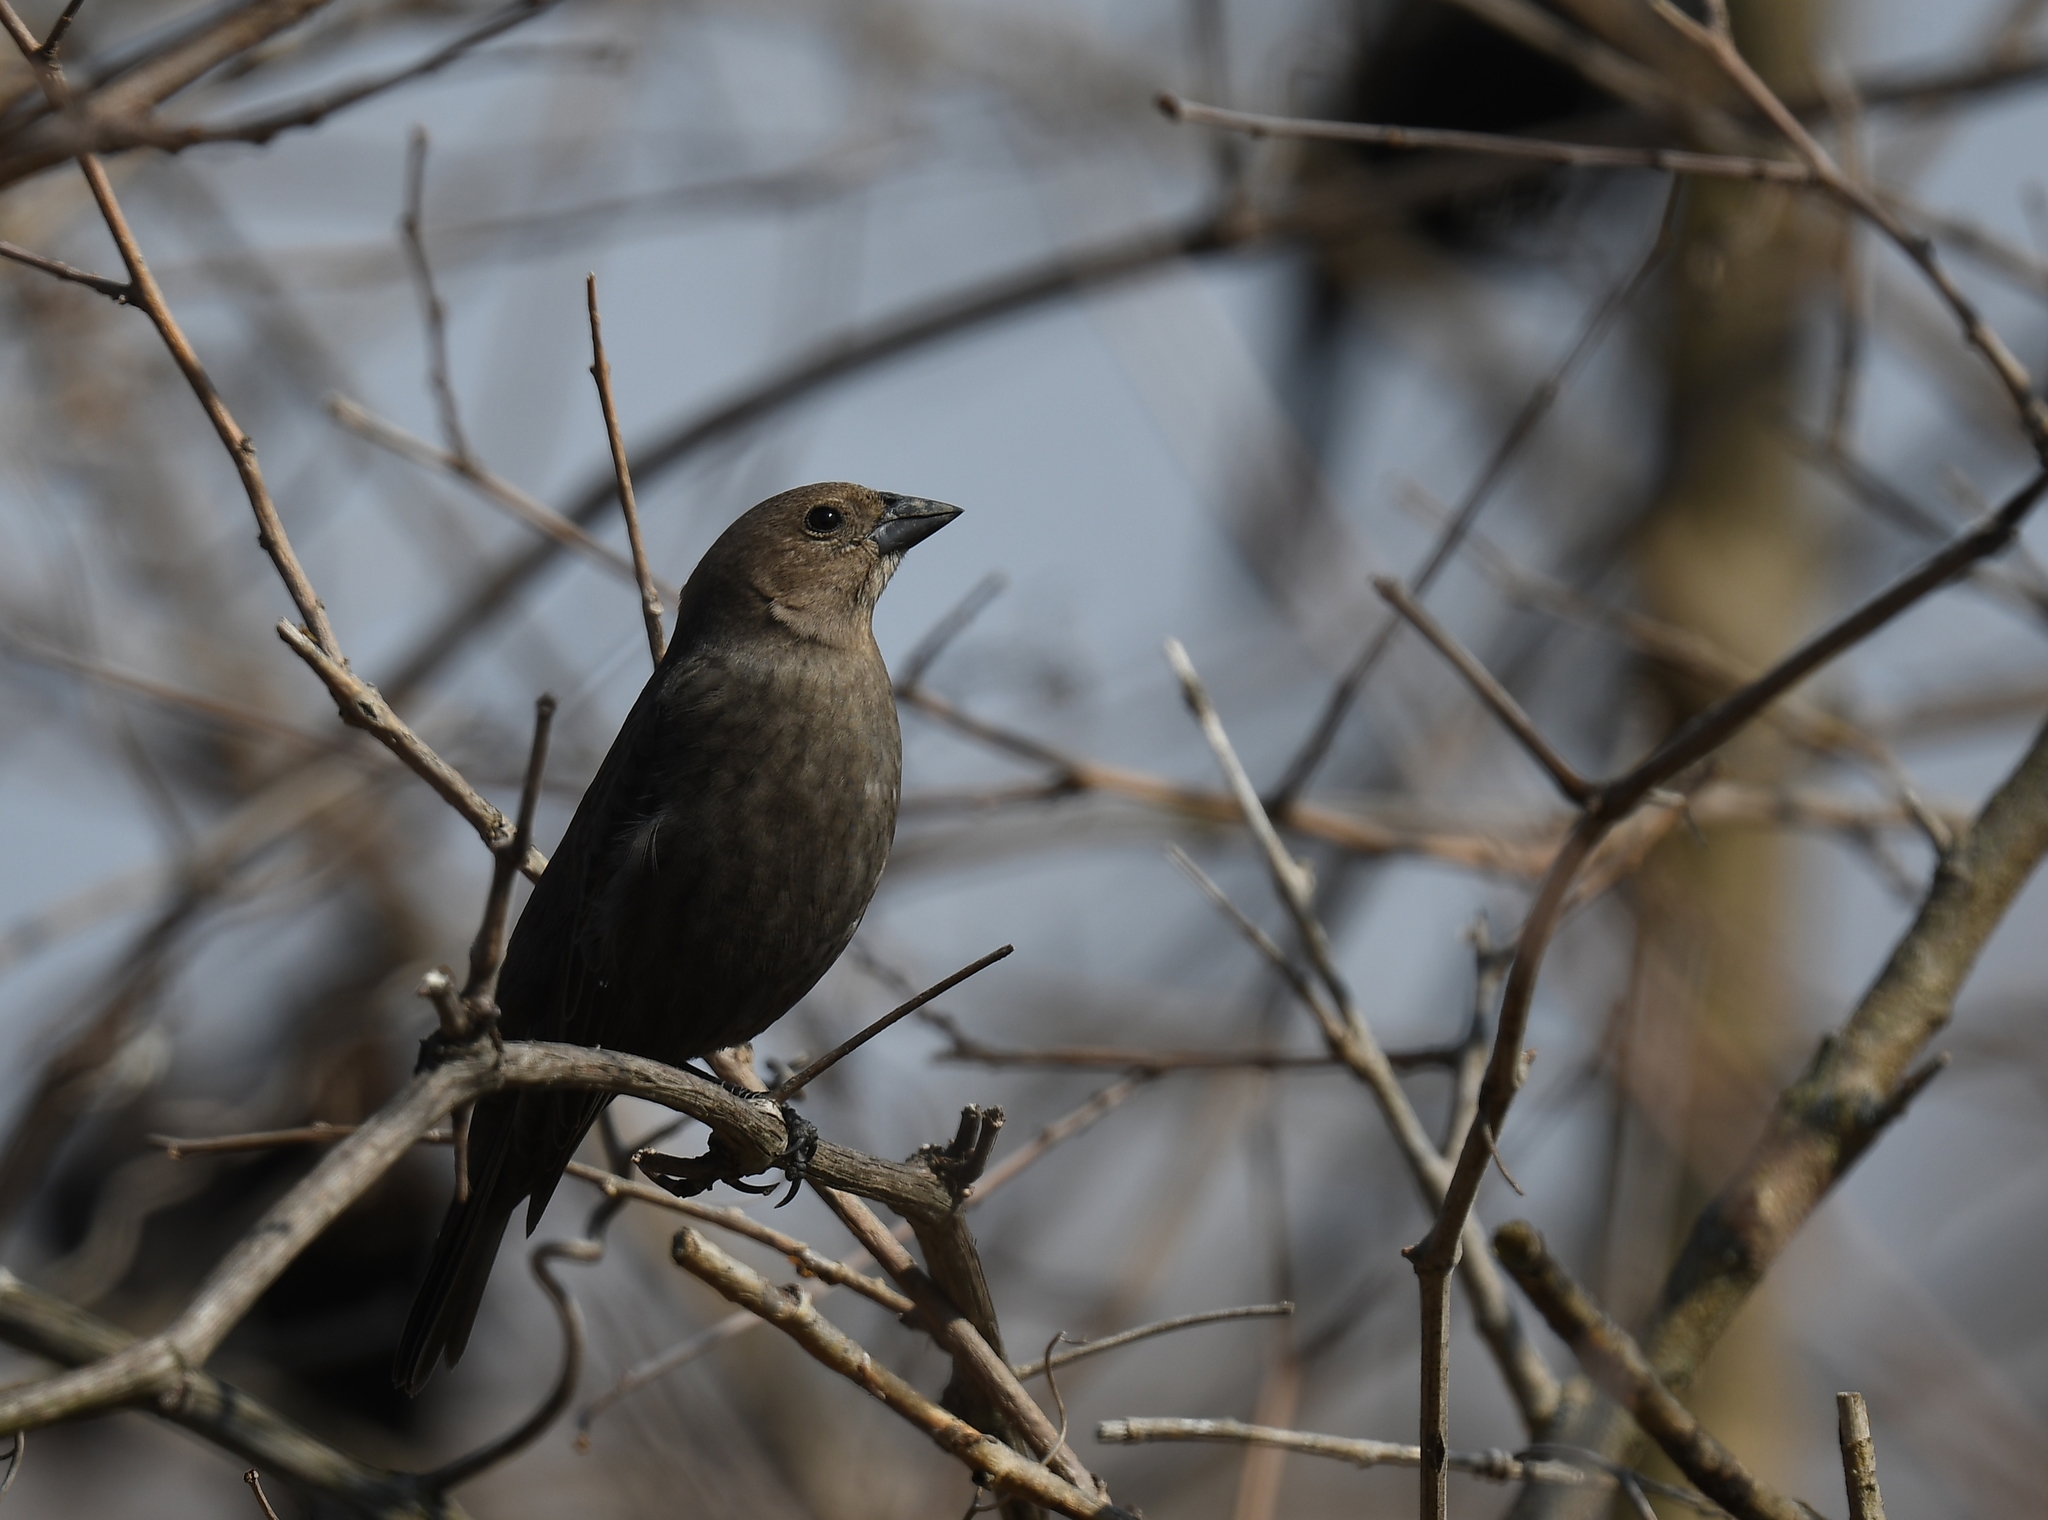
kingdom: Animalia
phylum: Chordata
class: Aves
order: Passeriformes
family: Icteridae
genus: Molothrus
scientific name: Molothrus ater
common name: Brown-headed cowbird
